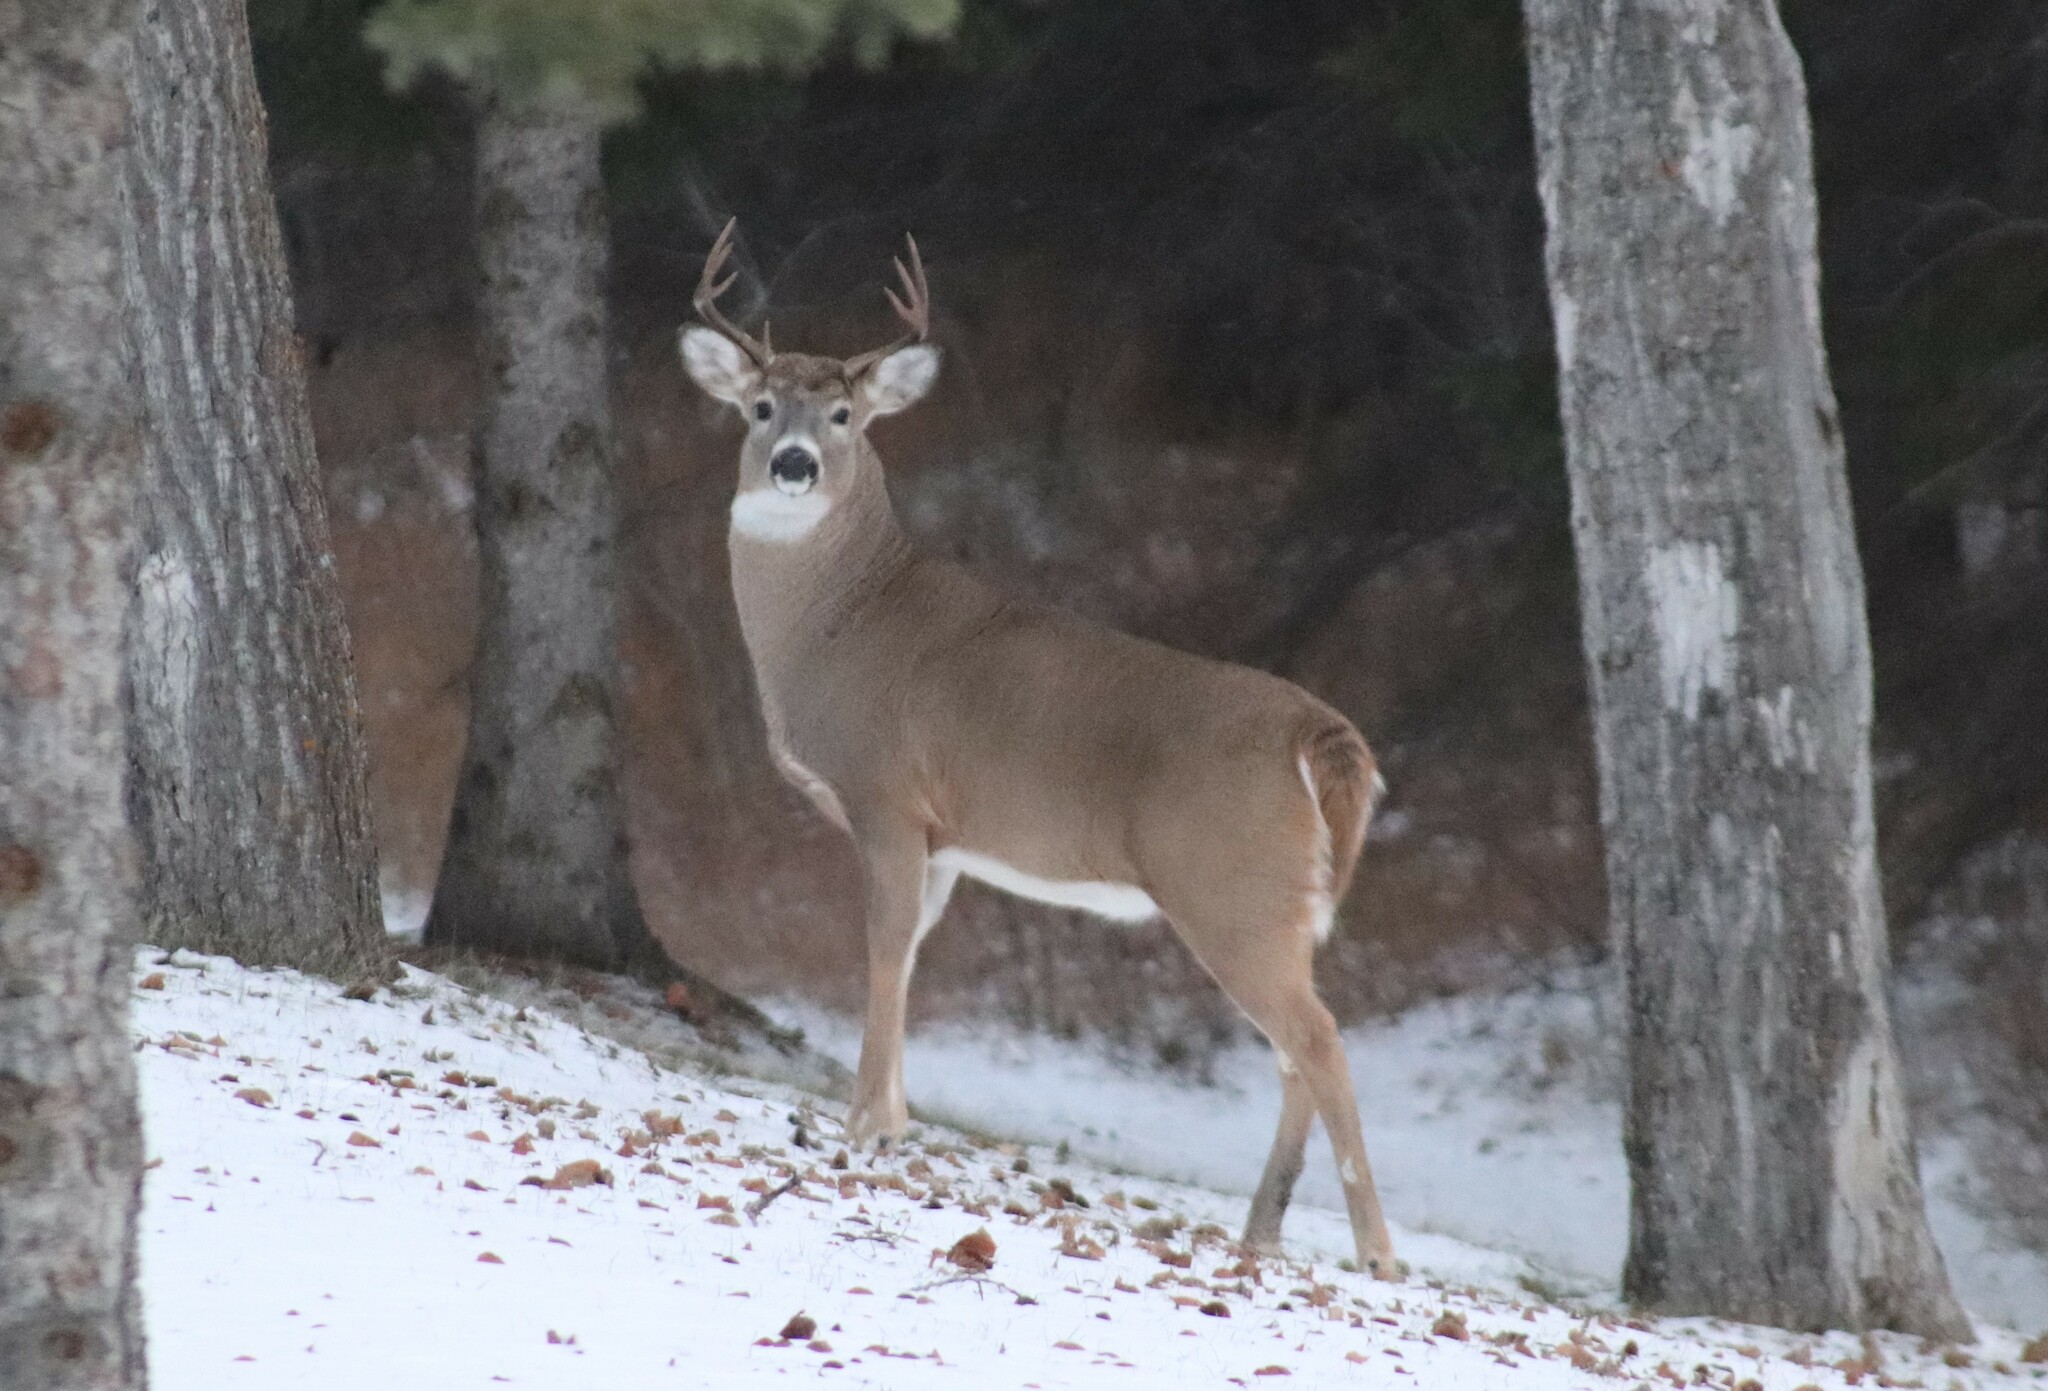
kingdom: Animalia
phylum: Chordata
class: Mammalia
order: Artiodactyla
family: Cervidae
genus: Odocoileus
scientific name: Odocoileus virginianus
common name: White-tailed deer
